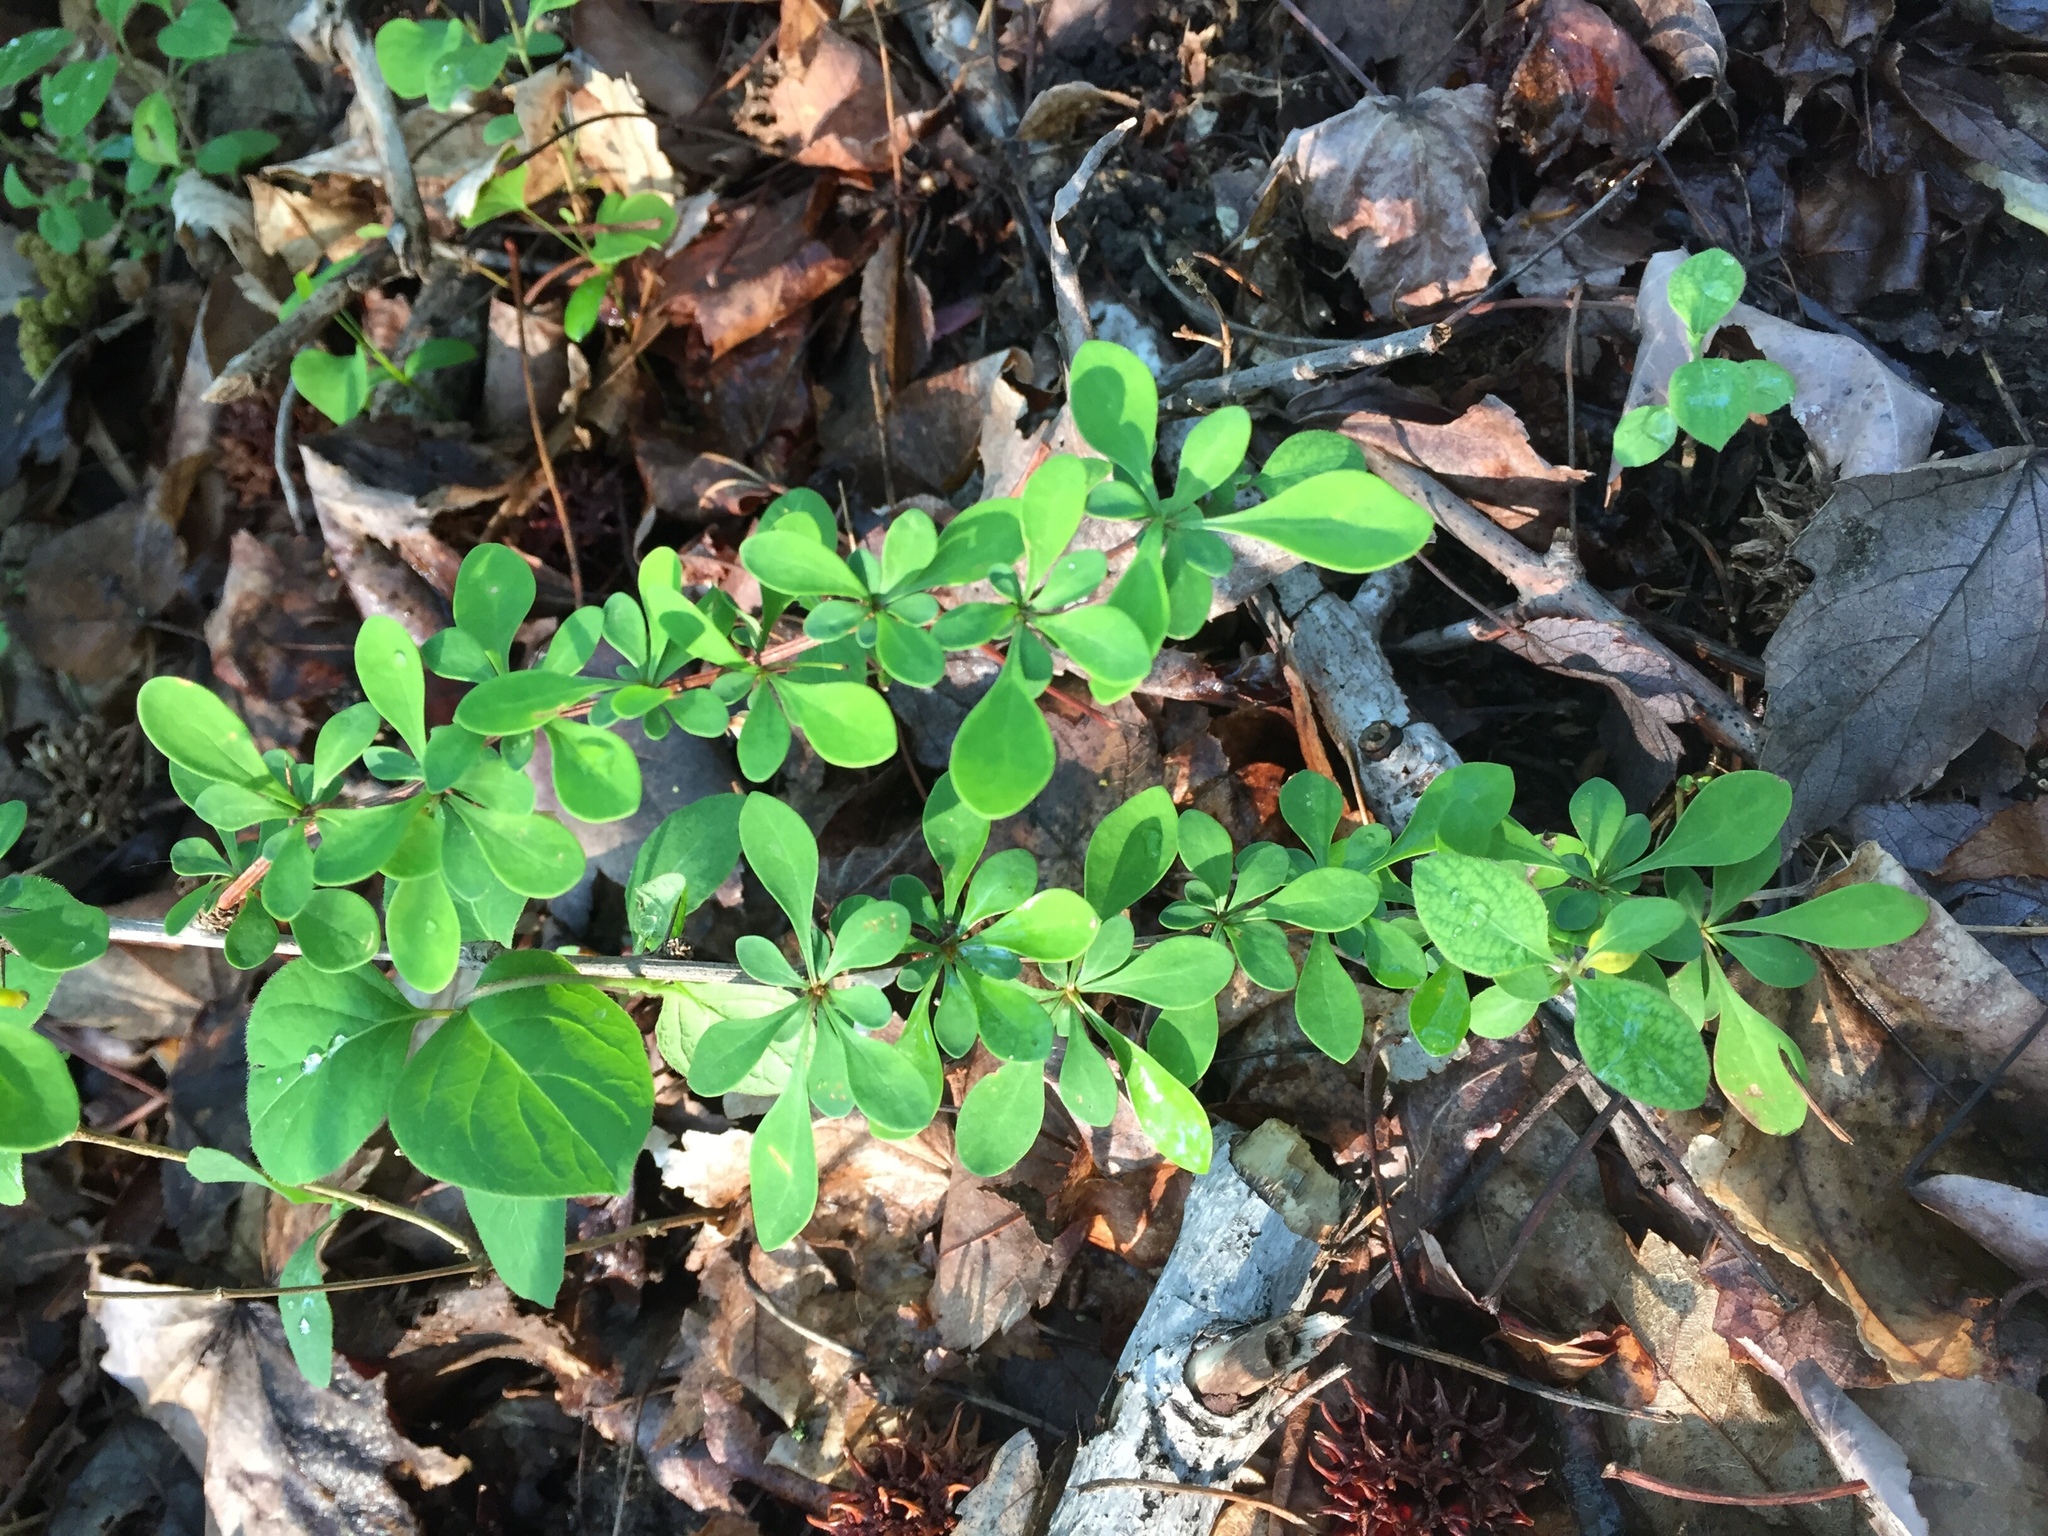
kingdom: Plantae
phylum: Tracheophyta
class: Magnoliopsida
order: Ranunculales
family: Berberidaceae
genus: Berberis
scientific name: Berberis thunbergii
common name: Japanese barberry
